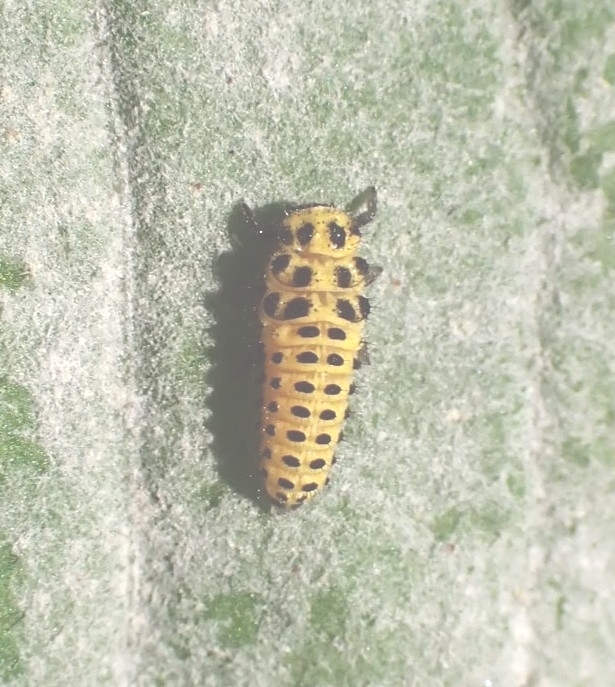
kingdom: Animalia
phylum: Arthropoda
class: Insecta
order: Coleoptera
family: Coccinellidae
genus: Psyllobora
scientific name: Psyllobora vigintiduopunctata
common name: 22-spot ladybird
